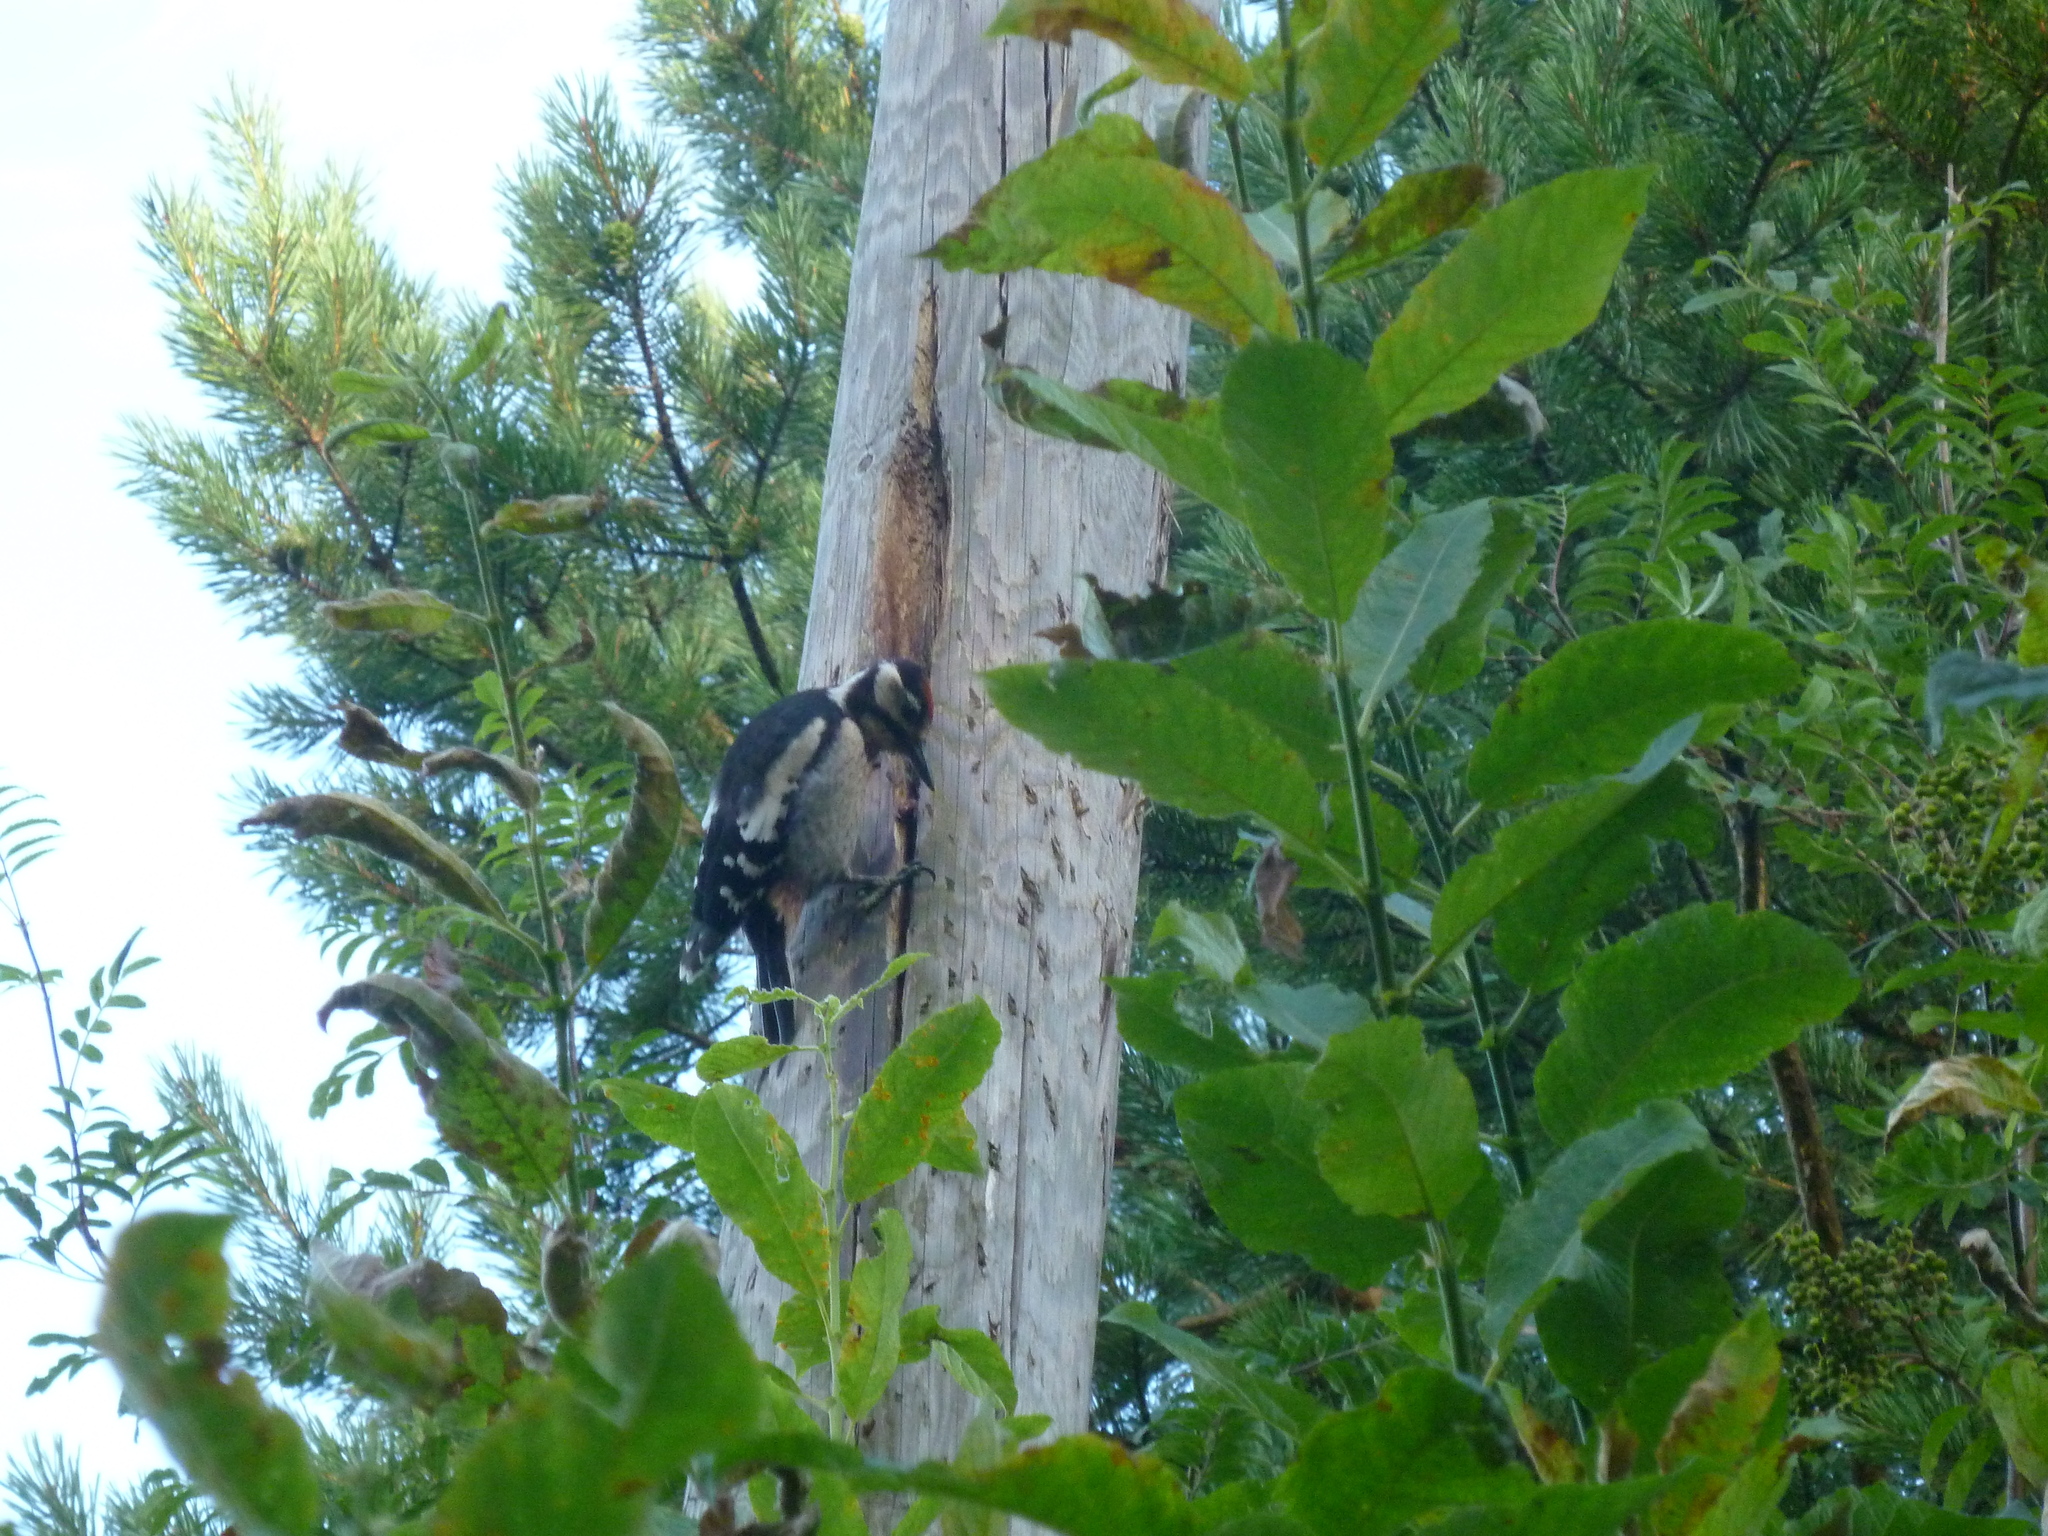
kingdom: Animalia
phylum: Chordata
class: Aves
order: Piciformes
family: Picidae
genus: Dendrocopos
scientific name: Dendrocopos major
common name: Great spotted woodpecker
